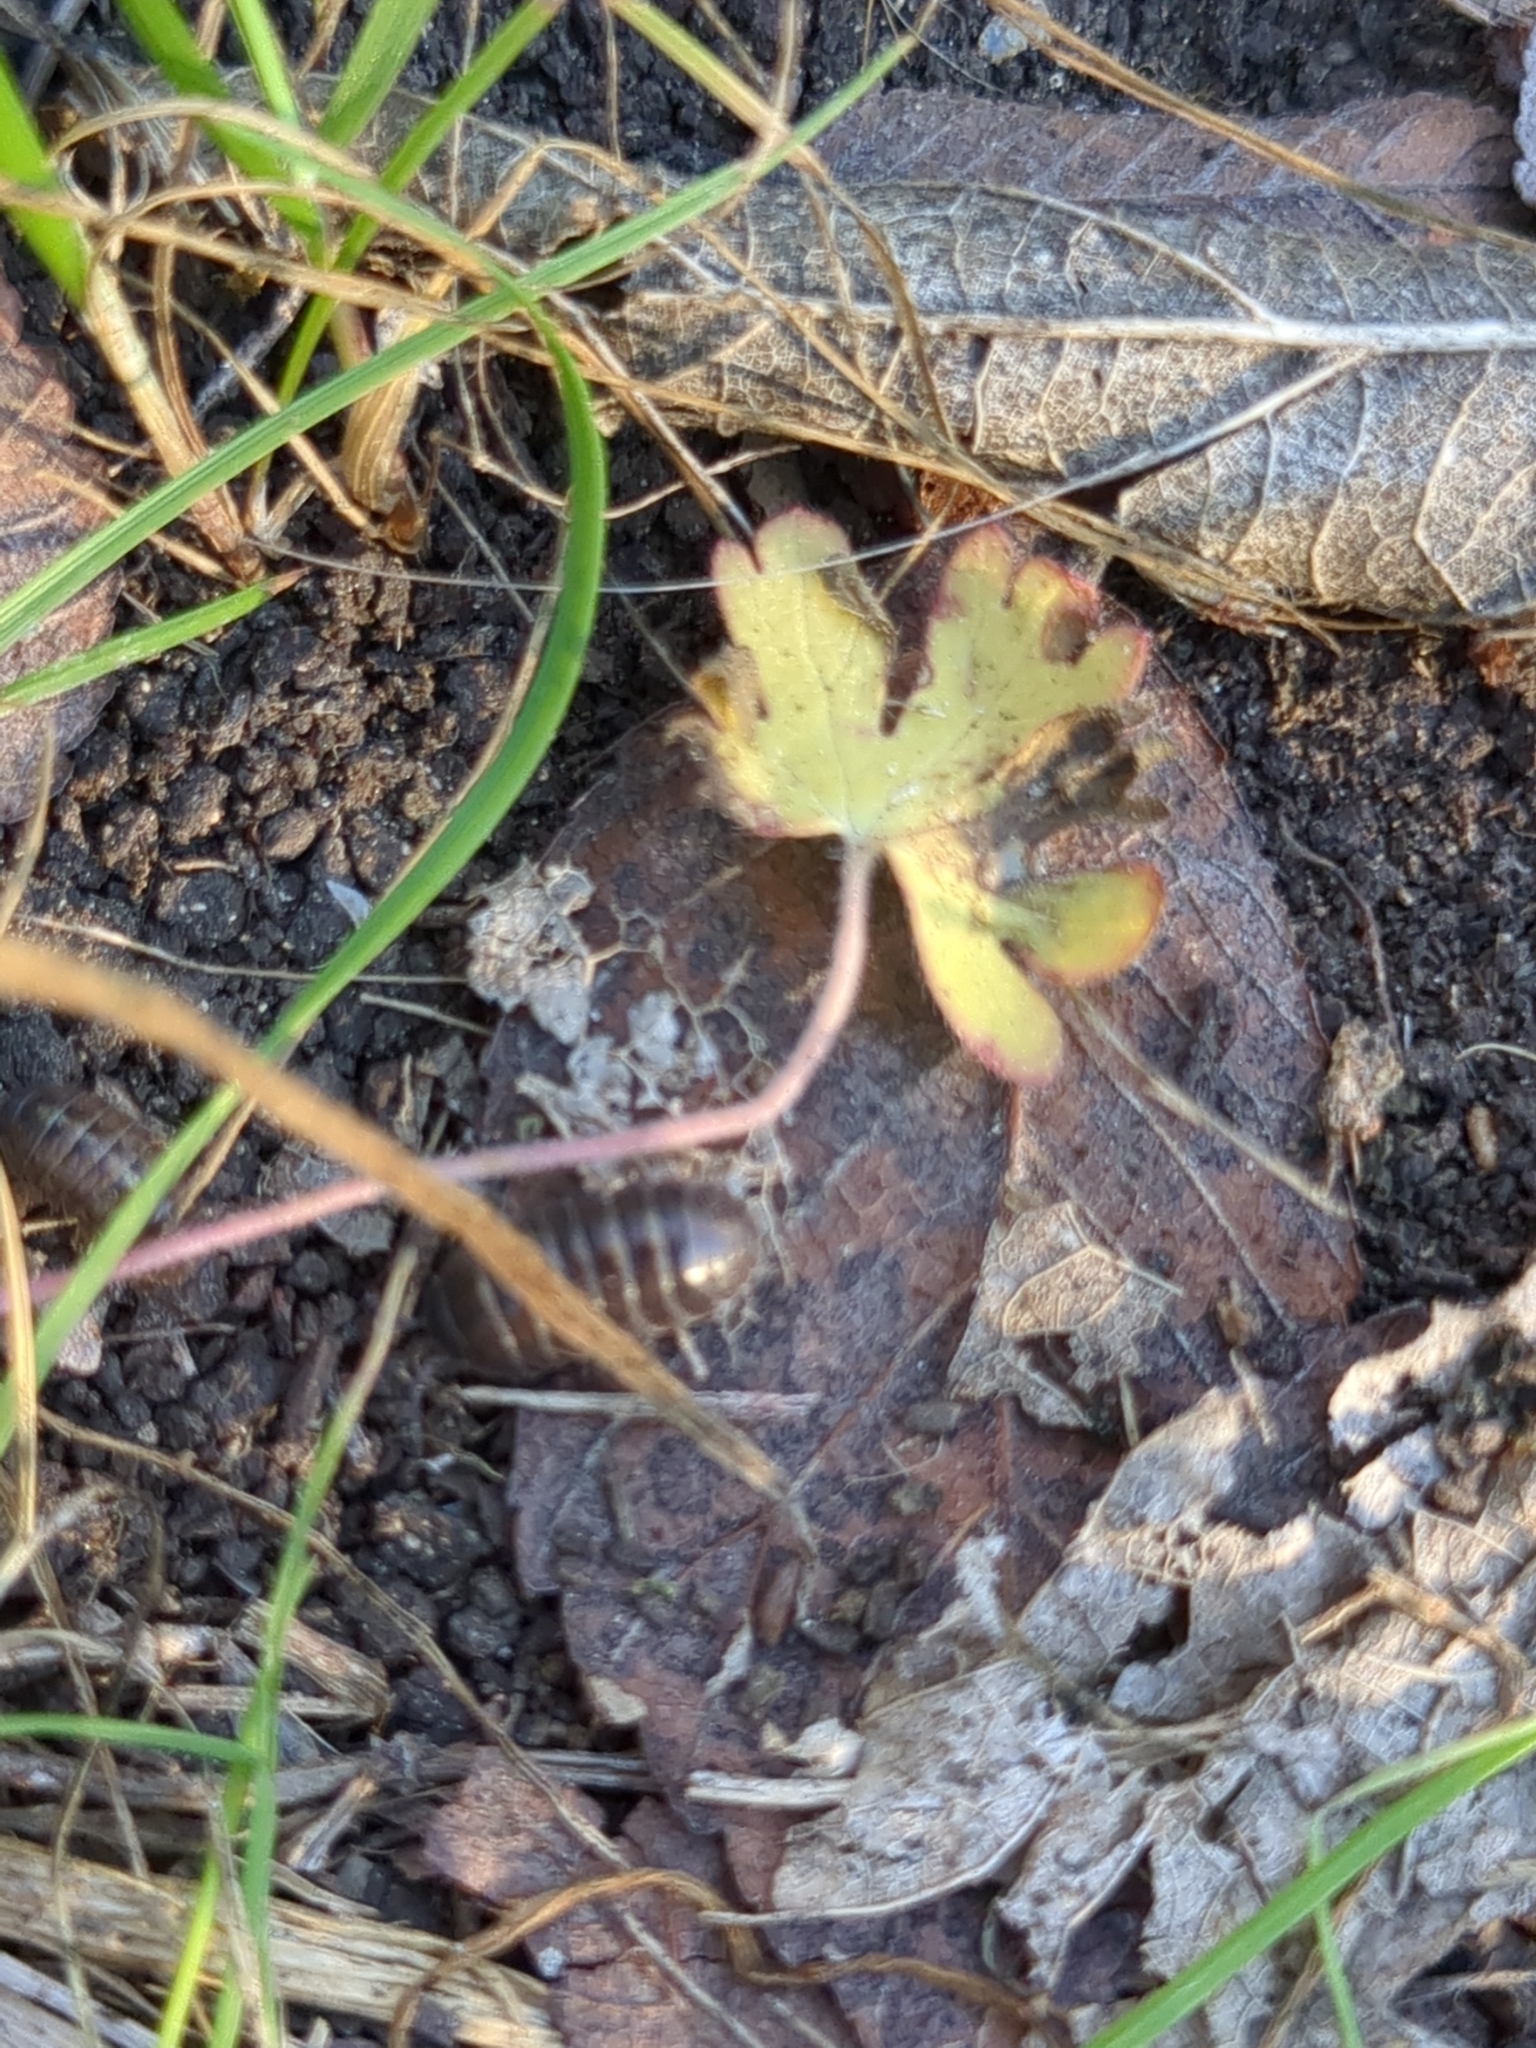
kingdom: Animalia
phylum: Arthropoda
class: Malacostraca
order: Isopoda
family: Armadillidiidae
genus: Armadillidium
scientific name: Armadillidium vulgare
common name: Common pill woodlouse
